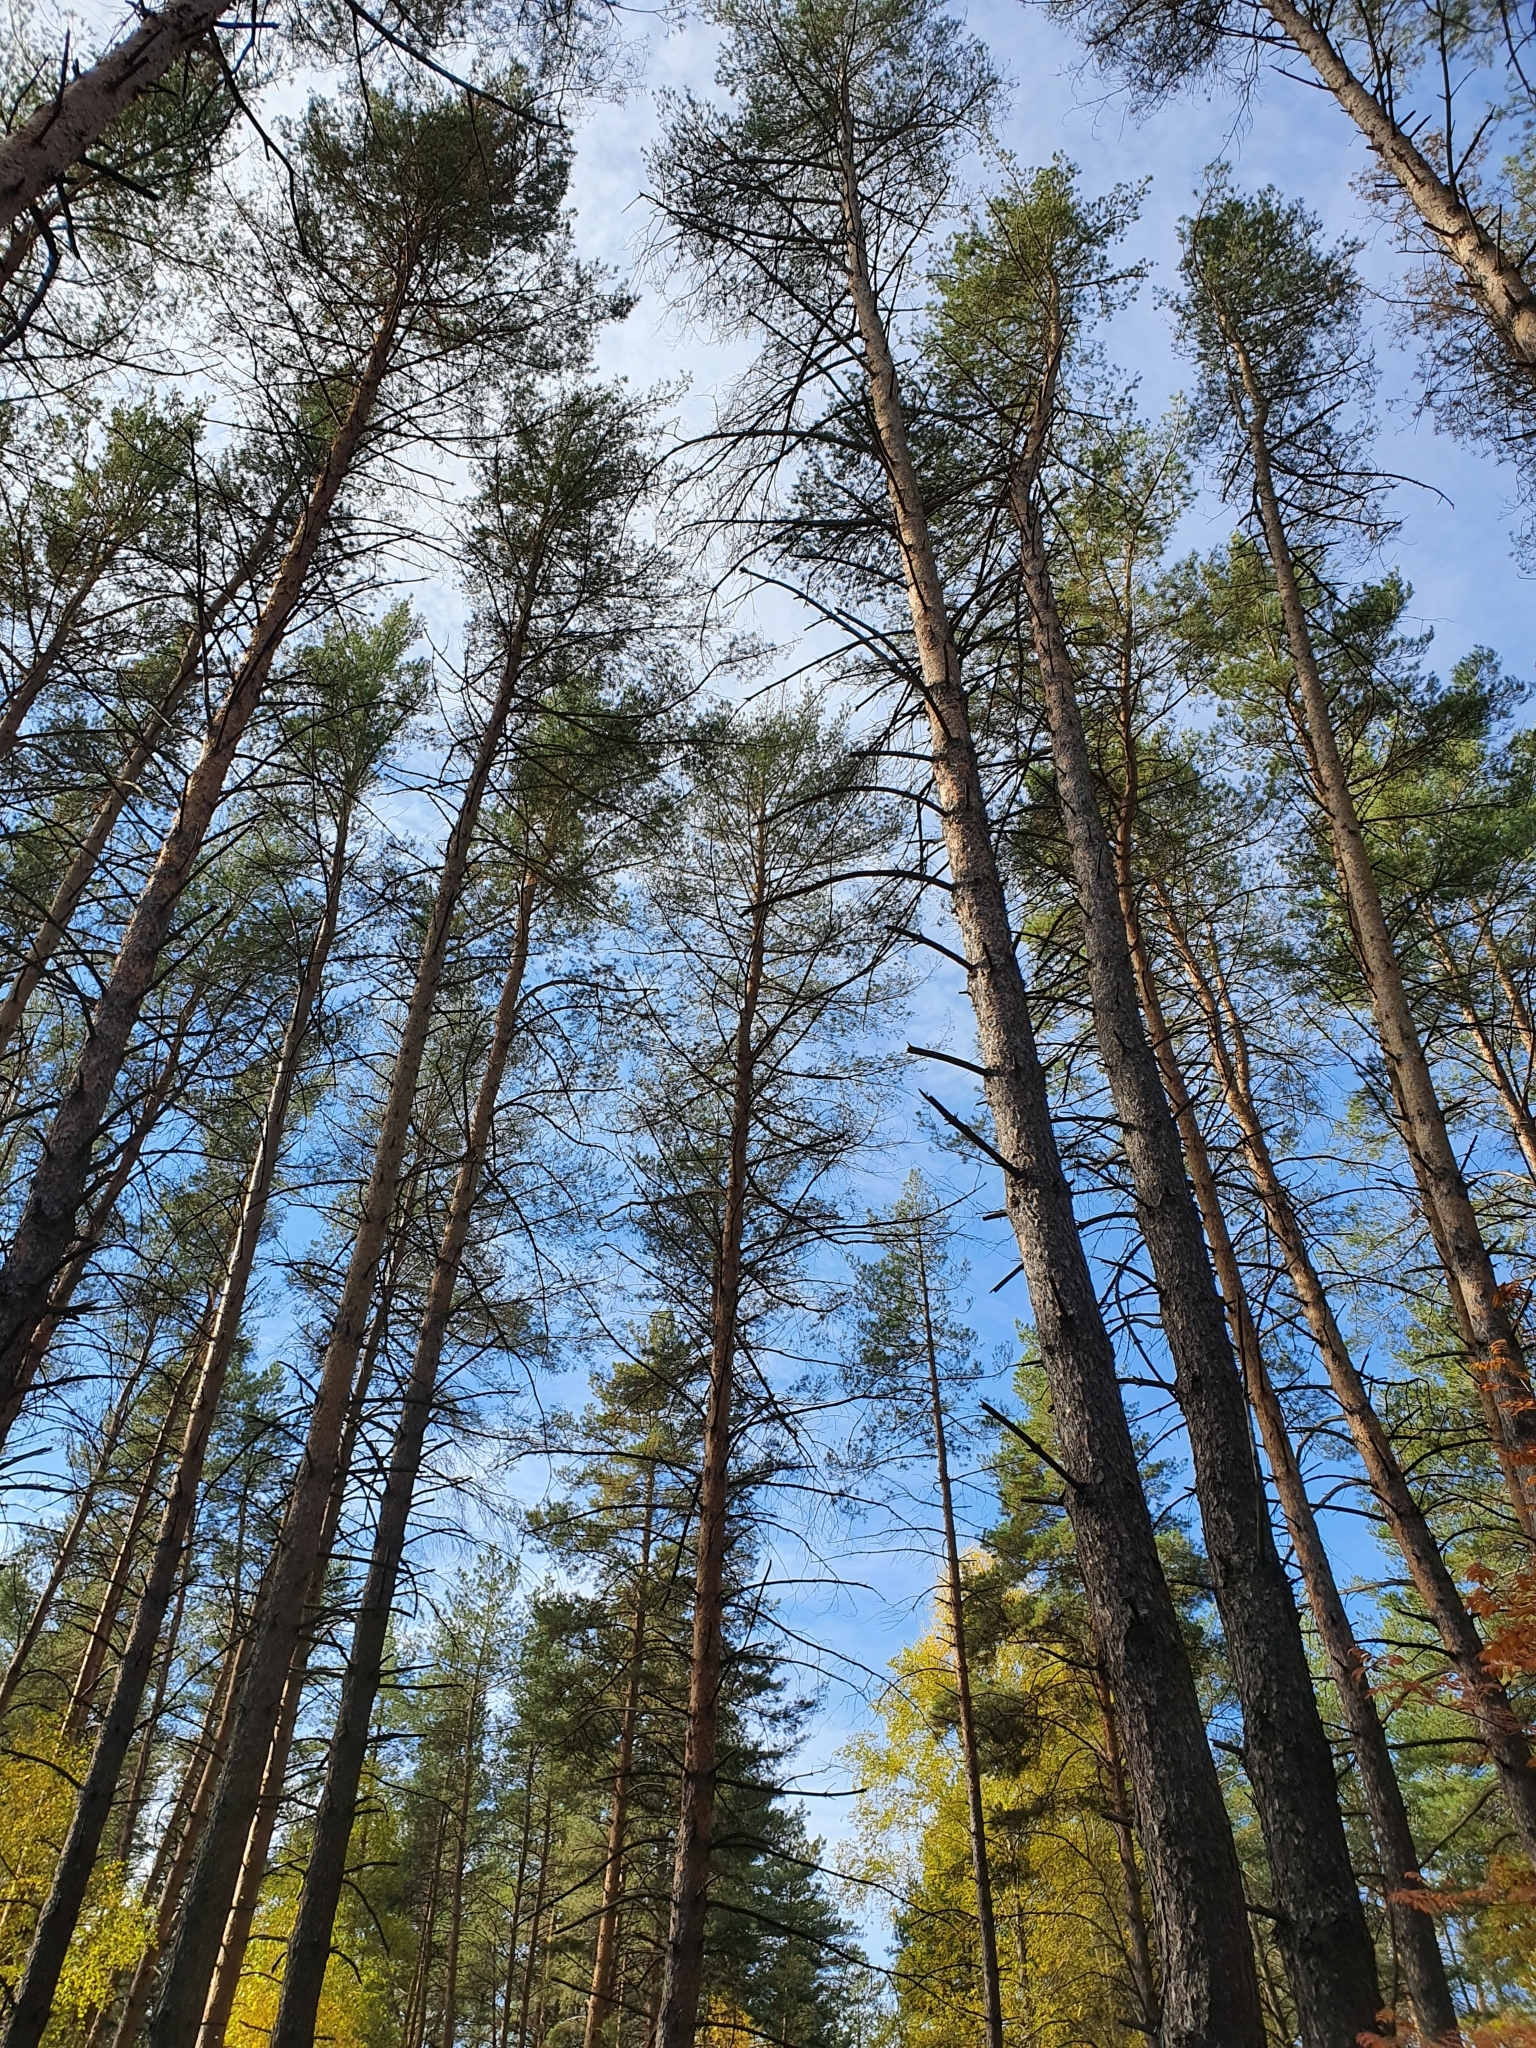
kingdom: Plantae
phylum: Tracheophyta
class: Pinopsida
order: Pinales
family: Pinaceae
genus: Pinus
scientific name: Pinus sylvestris
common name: Scots pine
